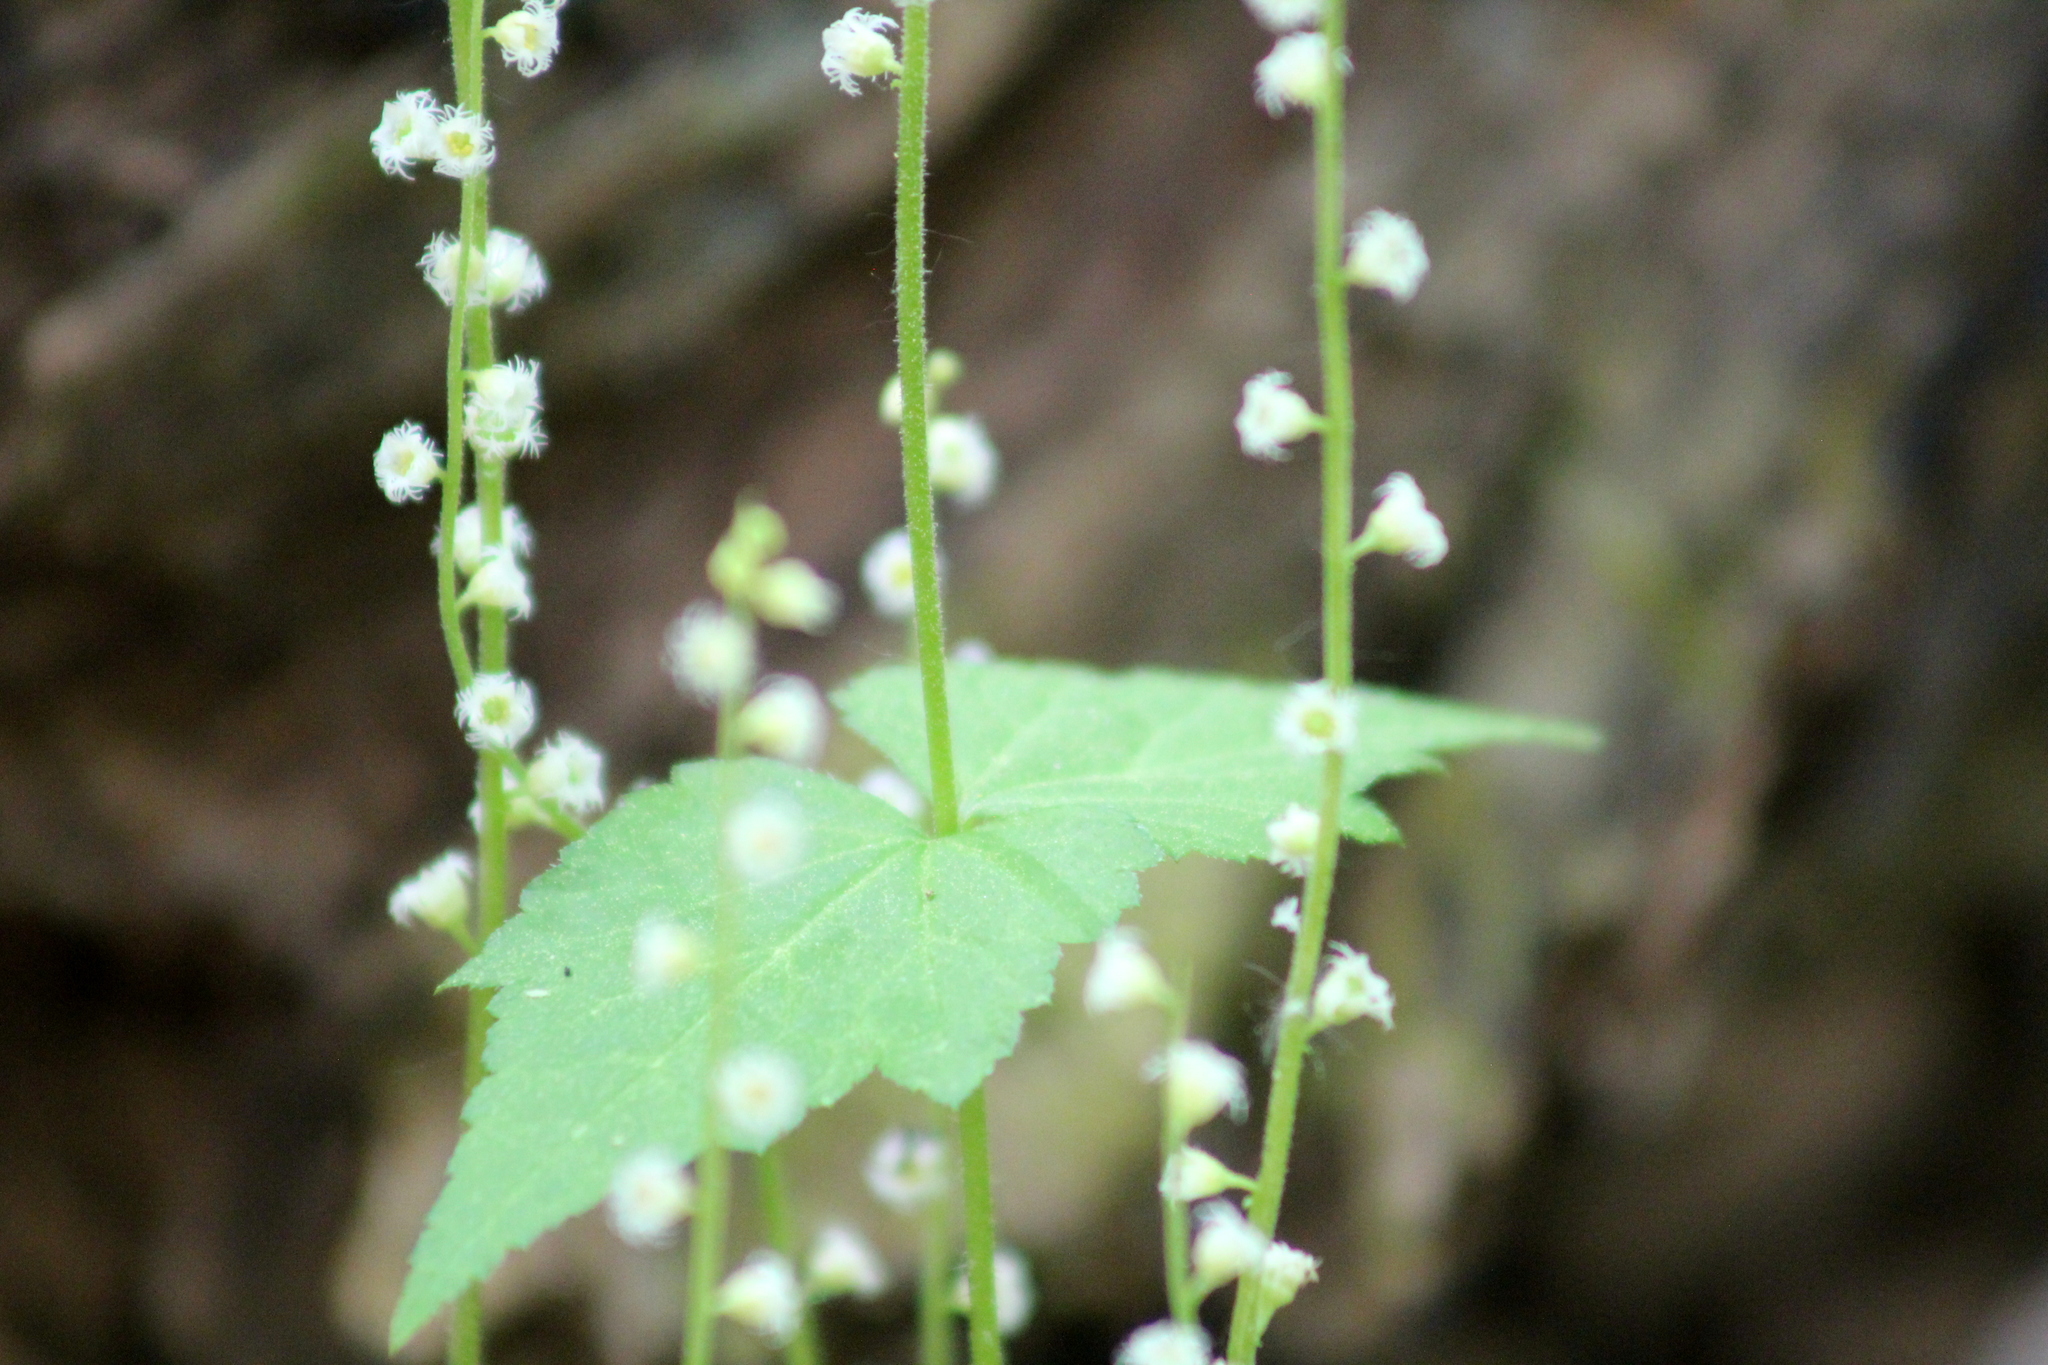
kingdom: Plantae
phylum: Tracheophyta
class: Magnoliopsida
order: Saxifragales
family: Saxifragaceae
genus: Mitella
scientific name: Mitella diphylla
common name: Coolwort
